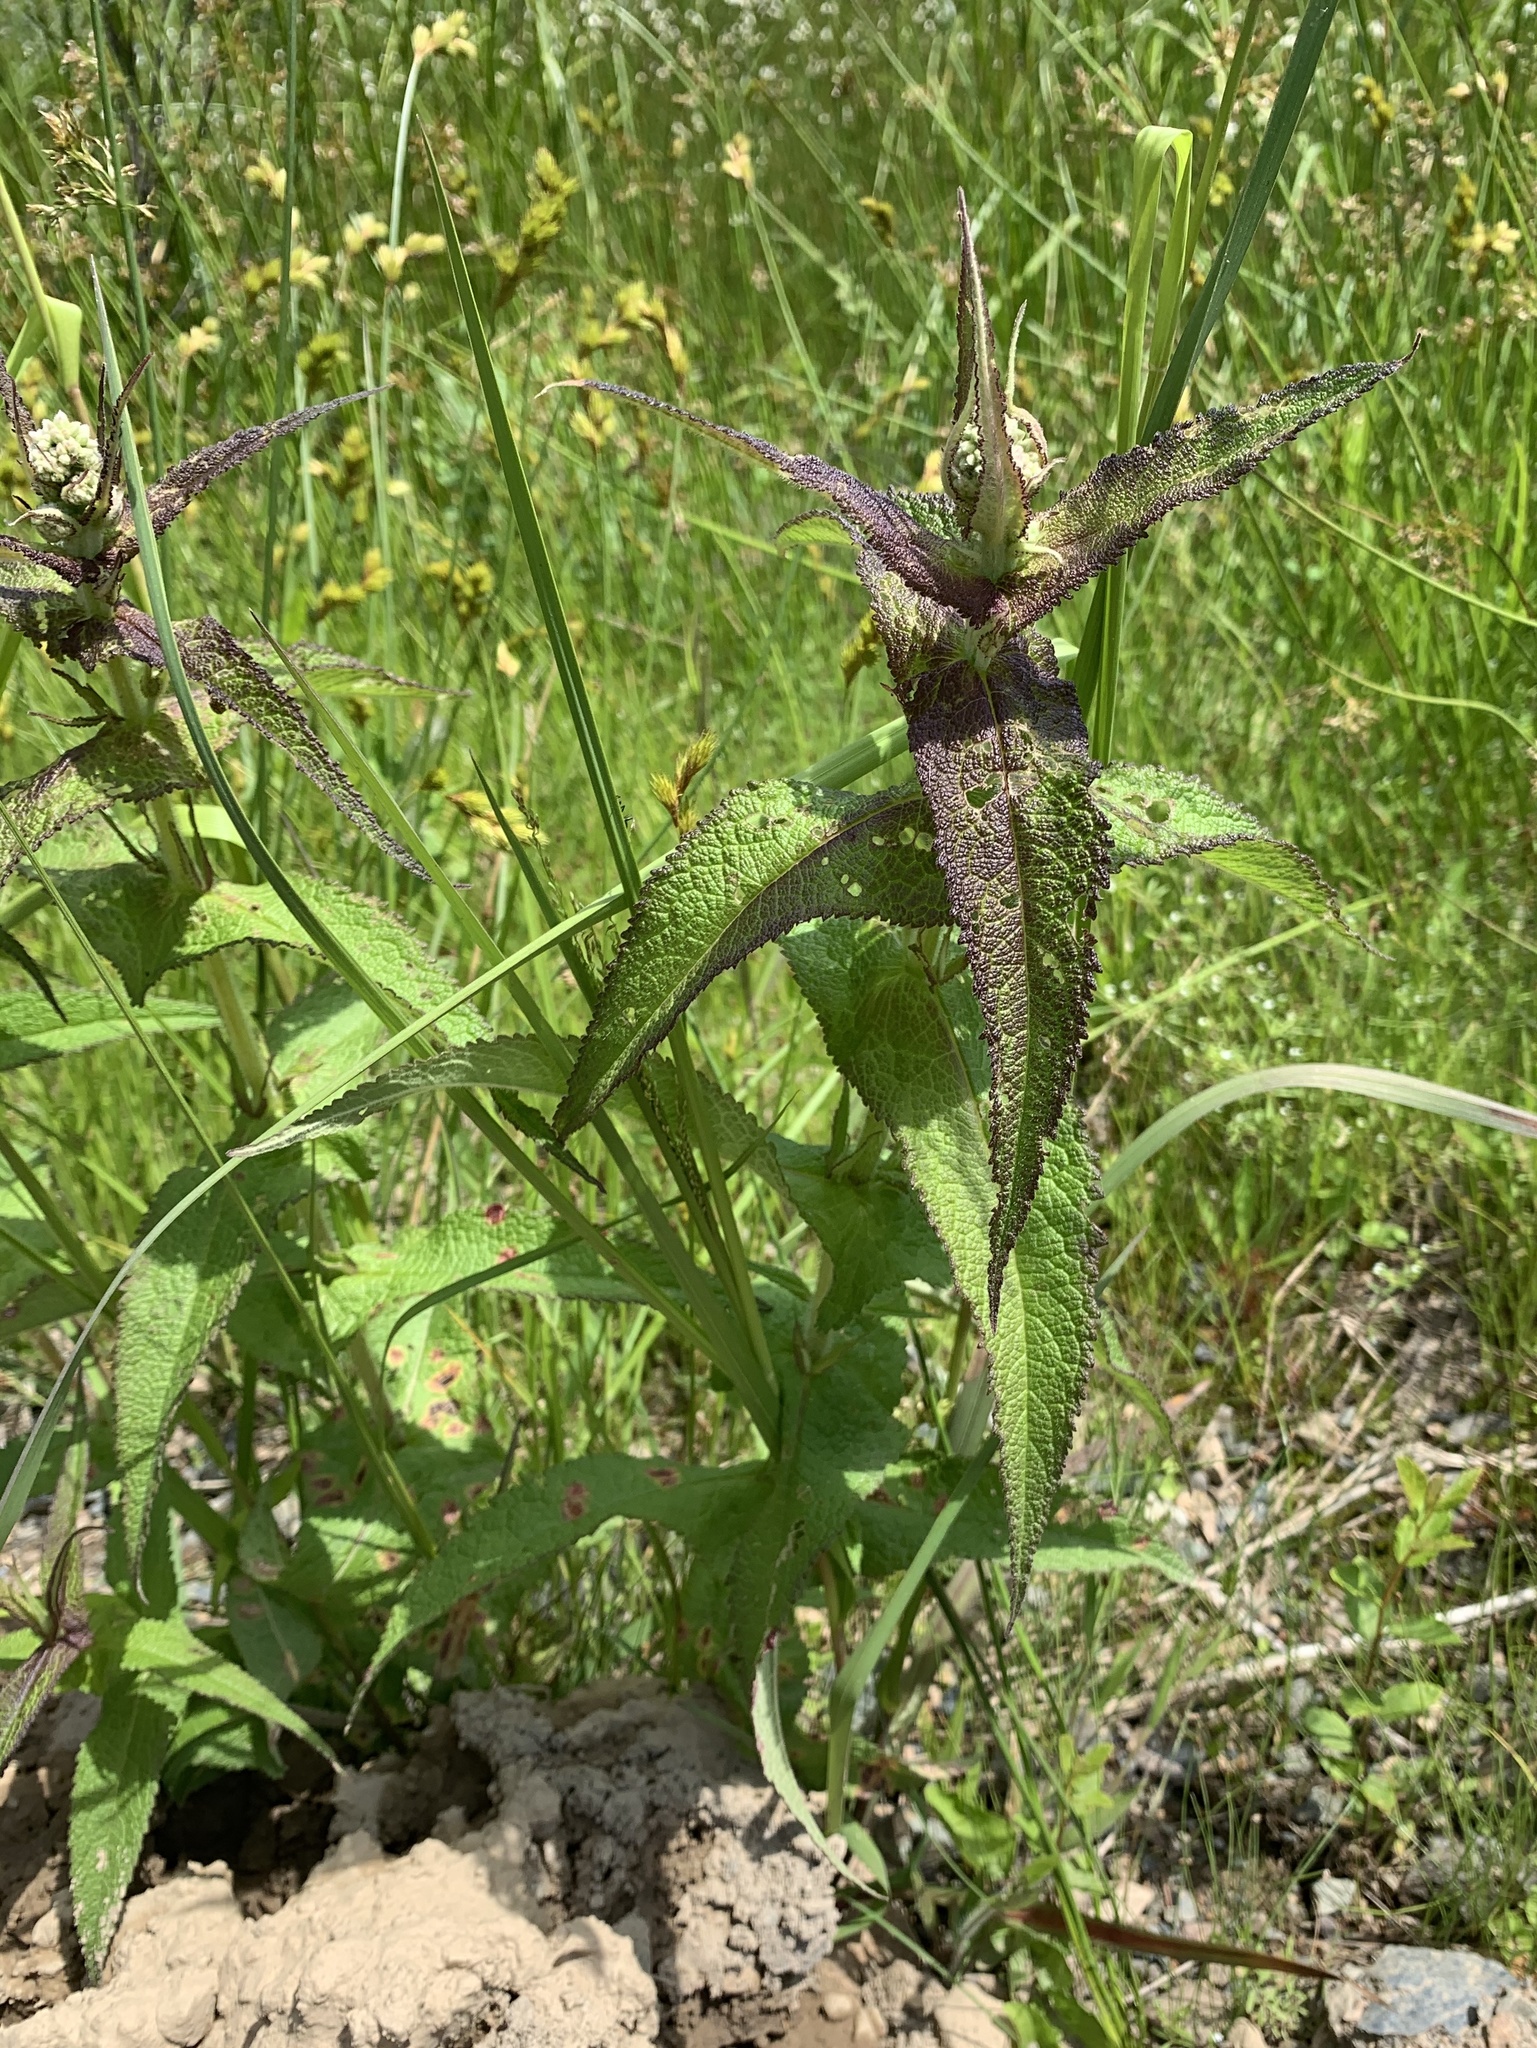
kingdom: Plantae
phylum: Tracheophyta
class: Magnoliopsida
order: Asterales
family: Asteraceae
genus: Eupatorium
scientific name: Eupatorium perfoliatum
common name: Boneset
